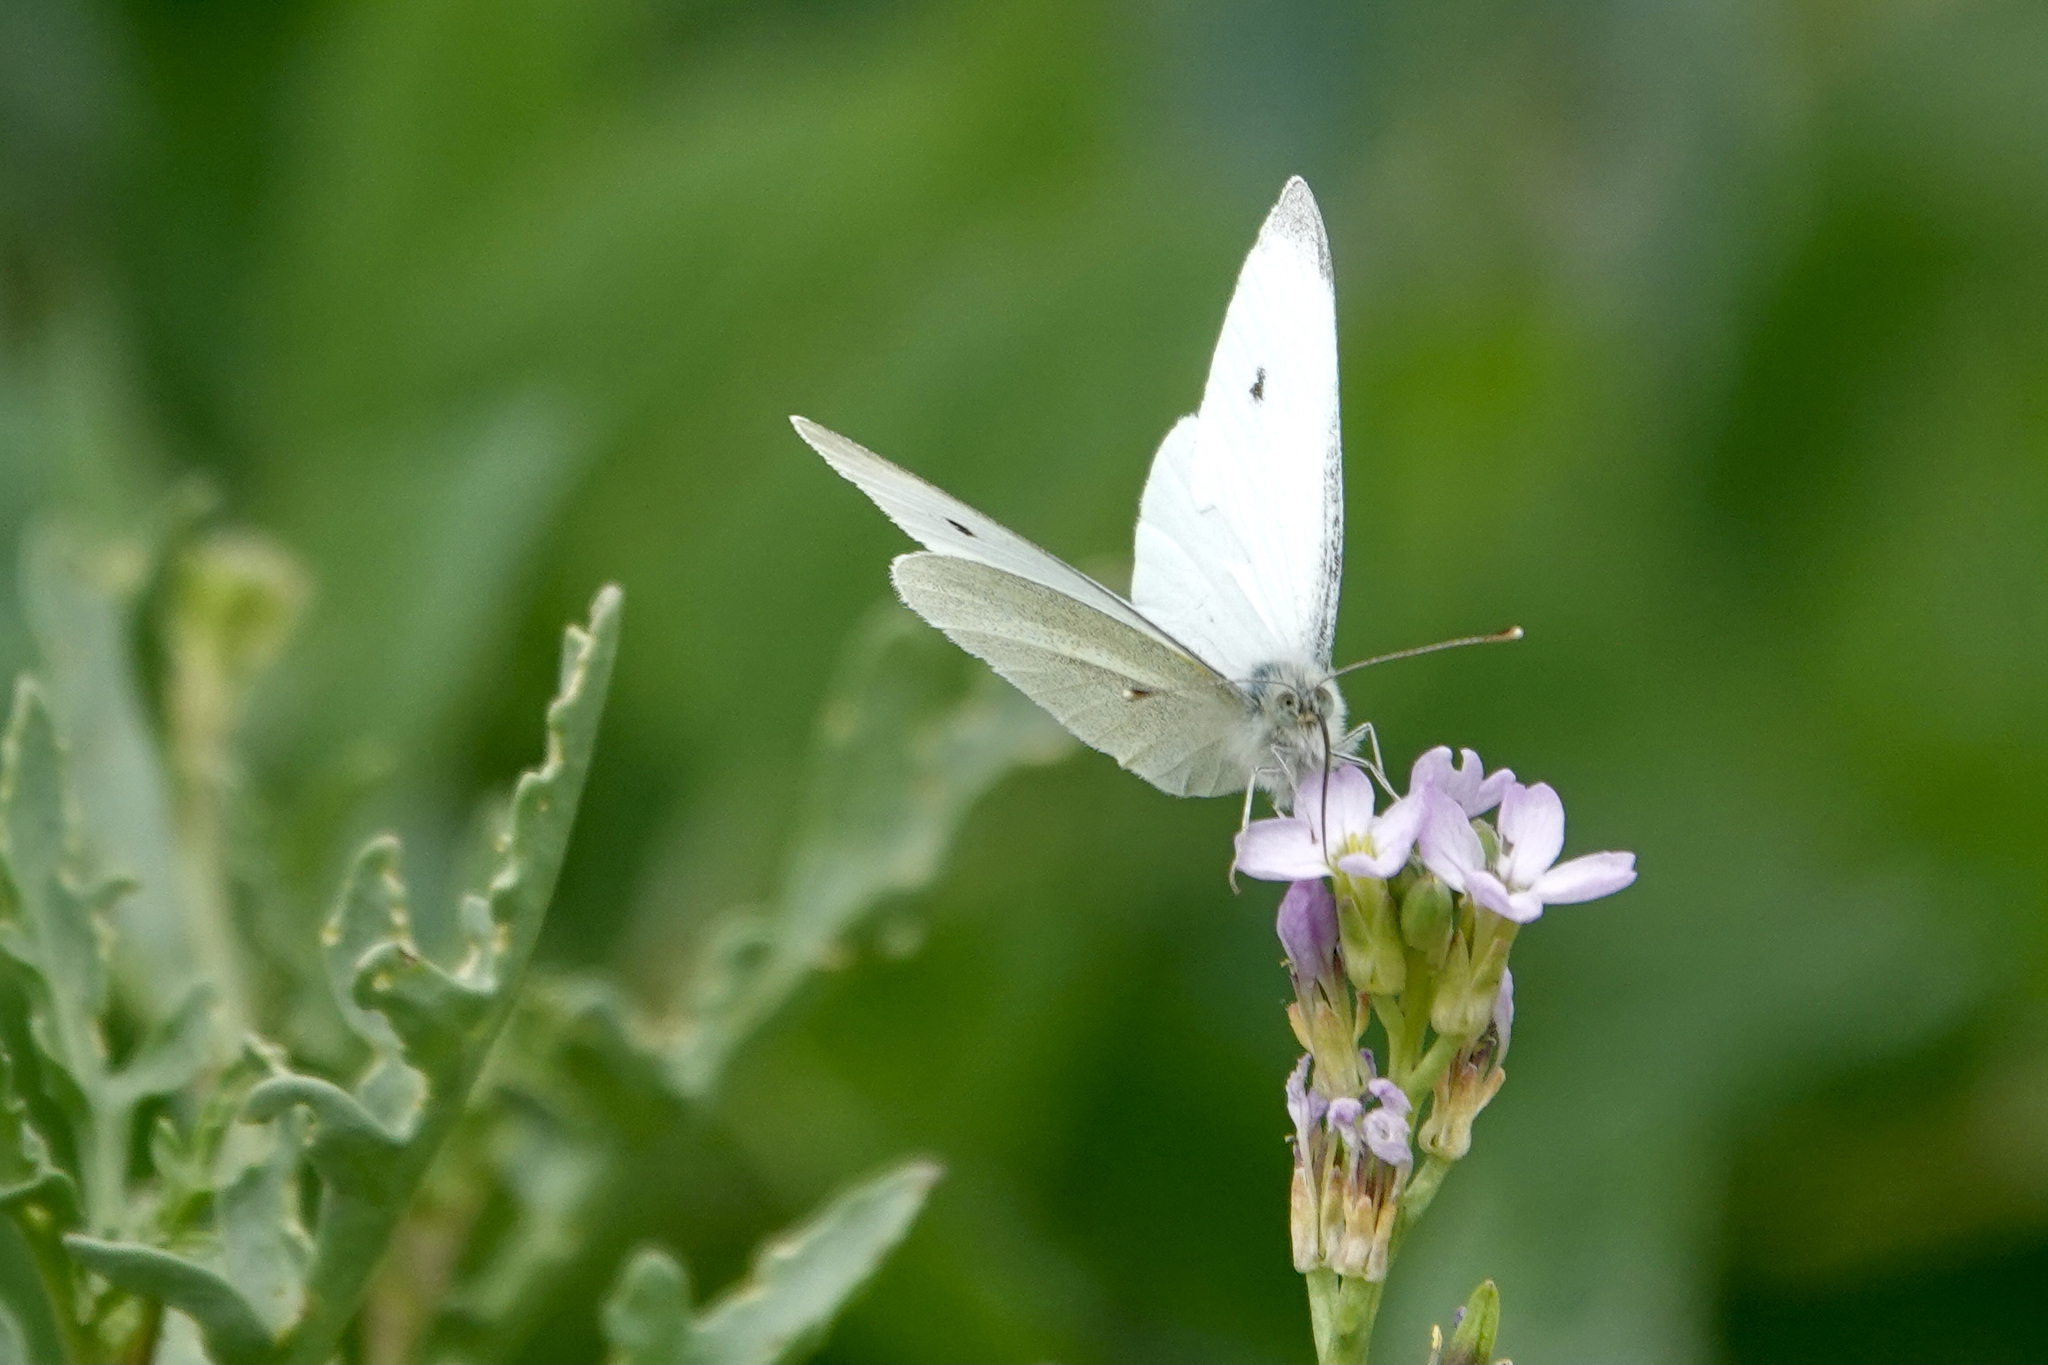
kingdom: Animalia
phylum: Arthropoda
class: Insecta
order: Lepidoptera
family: Pieridae
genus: Pieris
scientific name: Pieris rapae
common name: Small white
